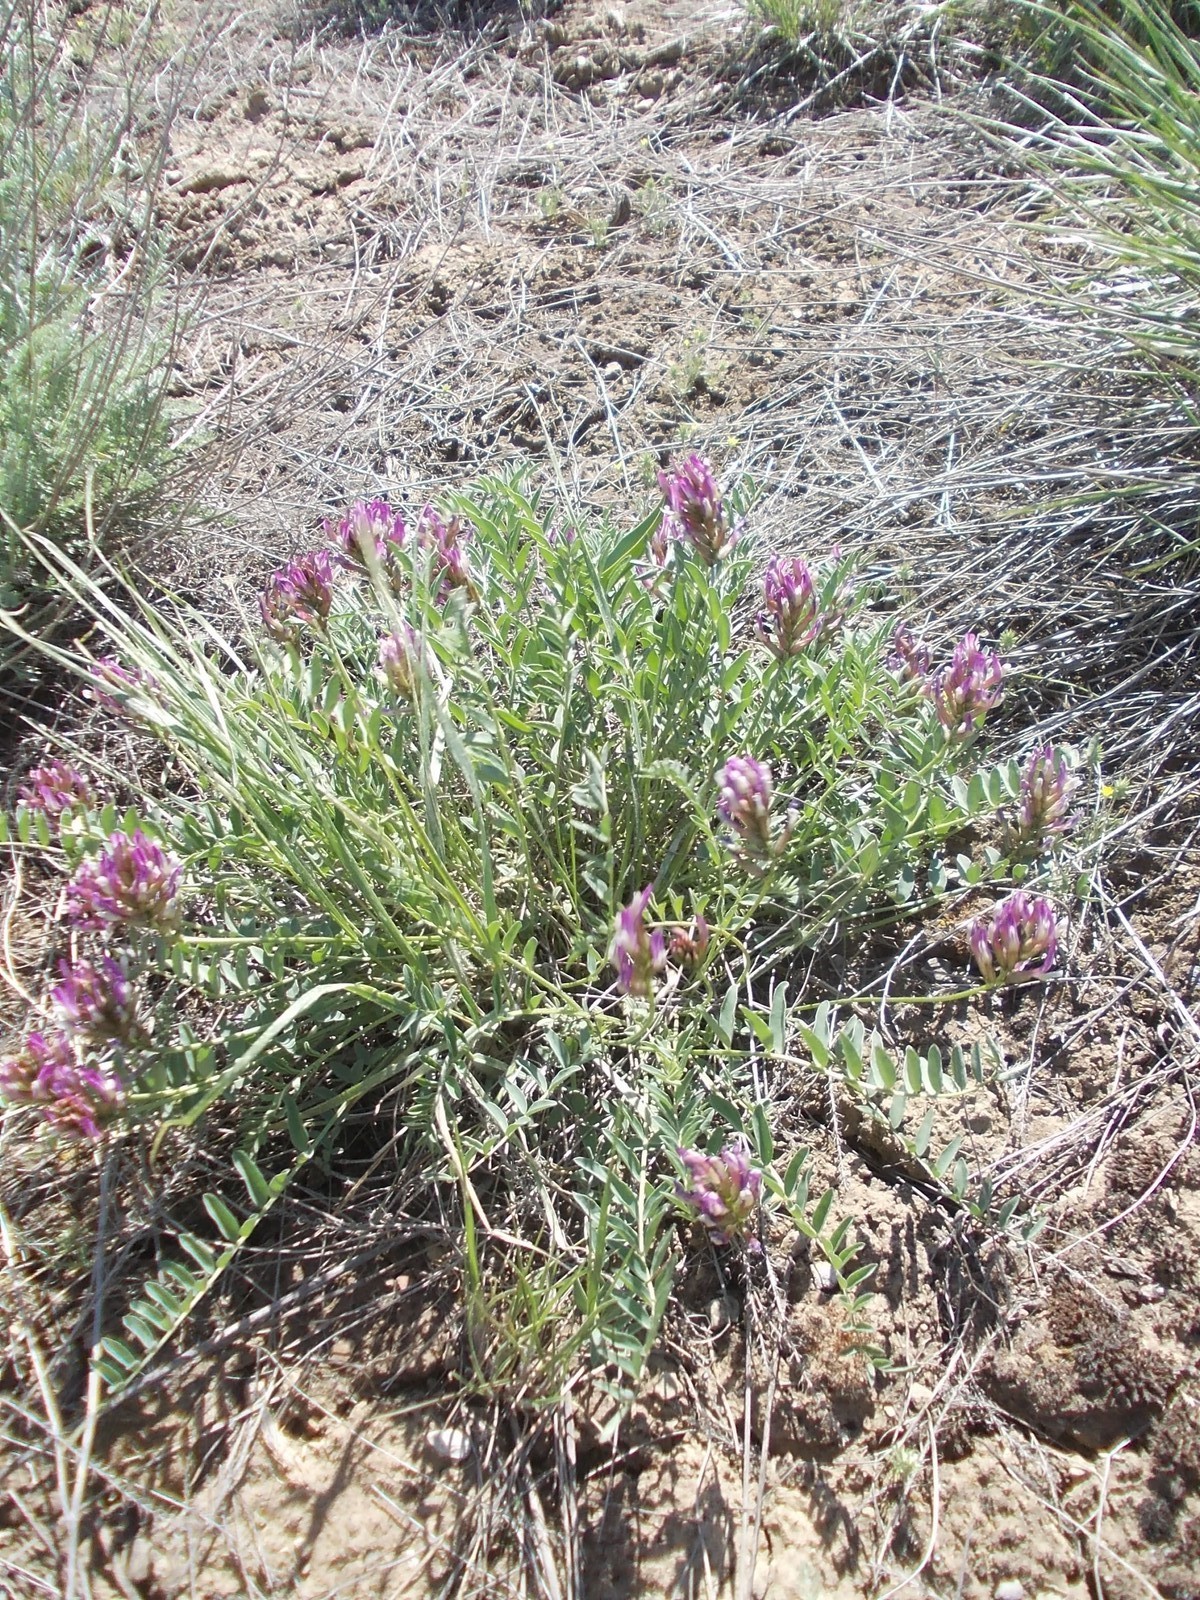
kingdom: Plantae
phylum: Tracheophyta
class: Magnoliopsida
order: Fabales
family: Fabaceae
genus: Astragalus
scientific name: Astragalus physodes
